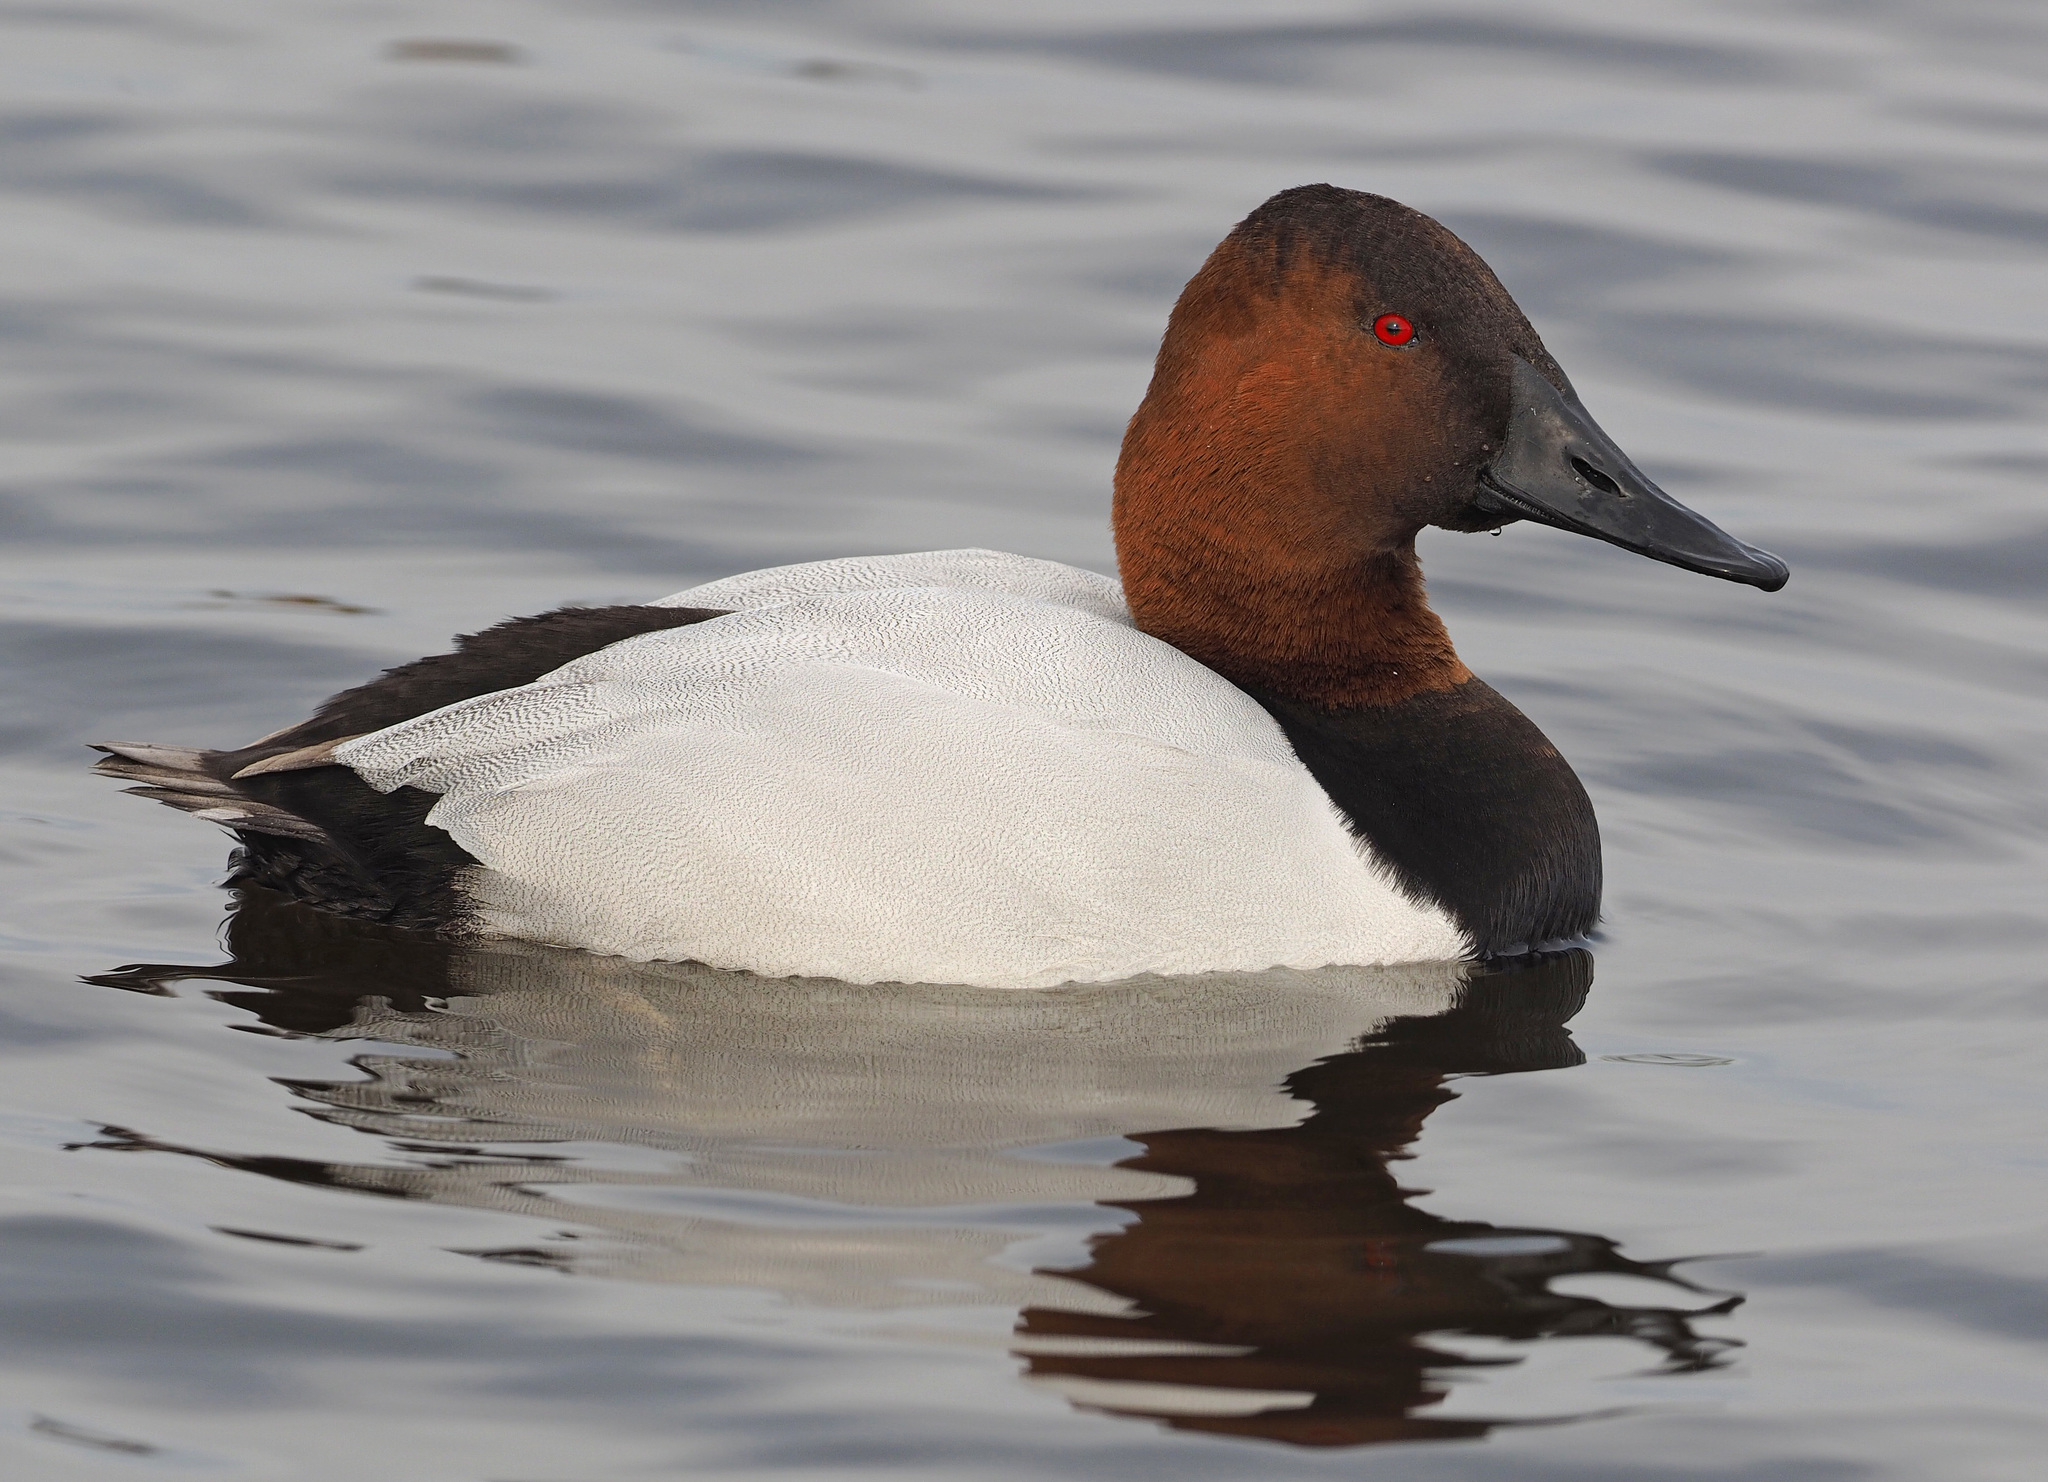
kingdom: Animalia
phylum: Chordata
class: Aves
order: Anseriformes
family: Anatidae
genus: Aythya
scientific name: Aythya valisineria
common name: Canvasback
